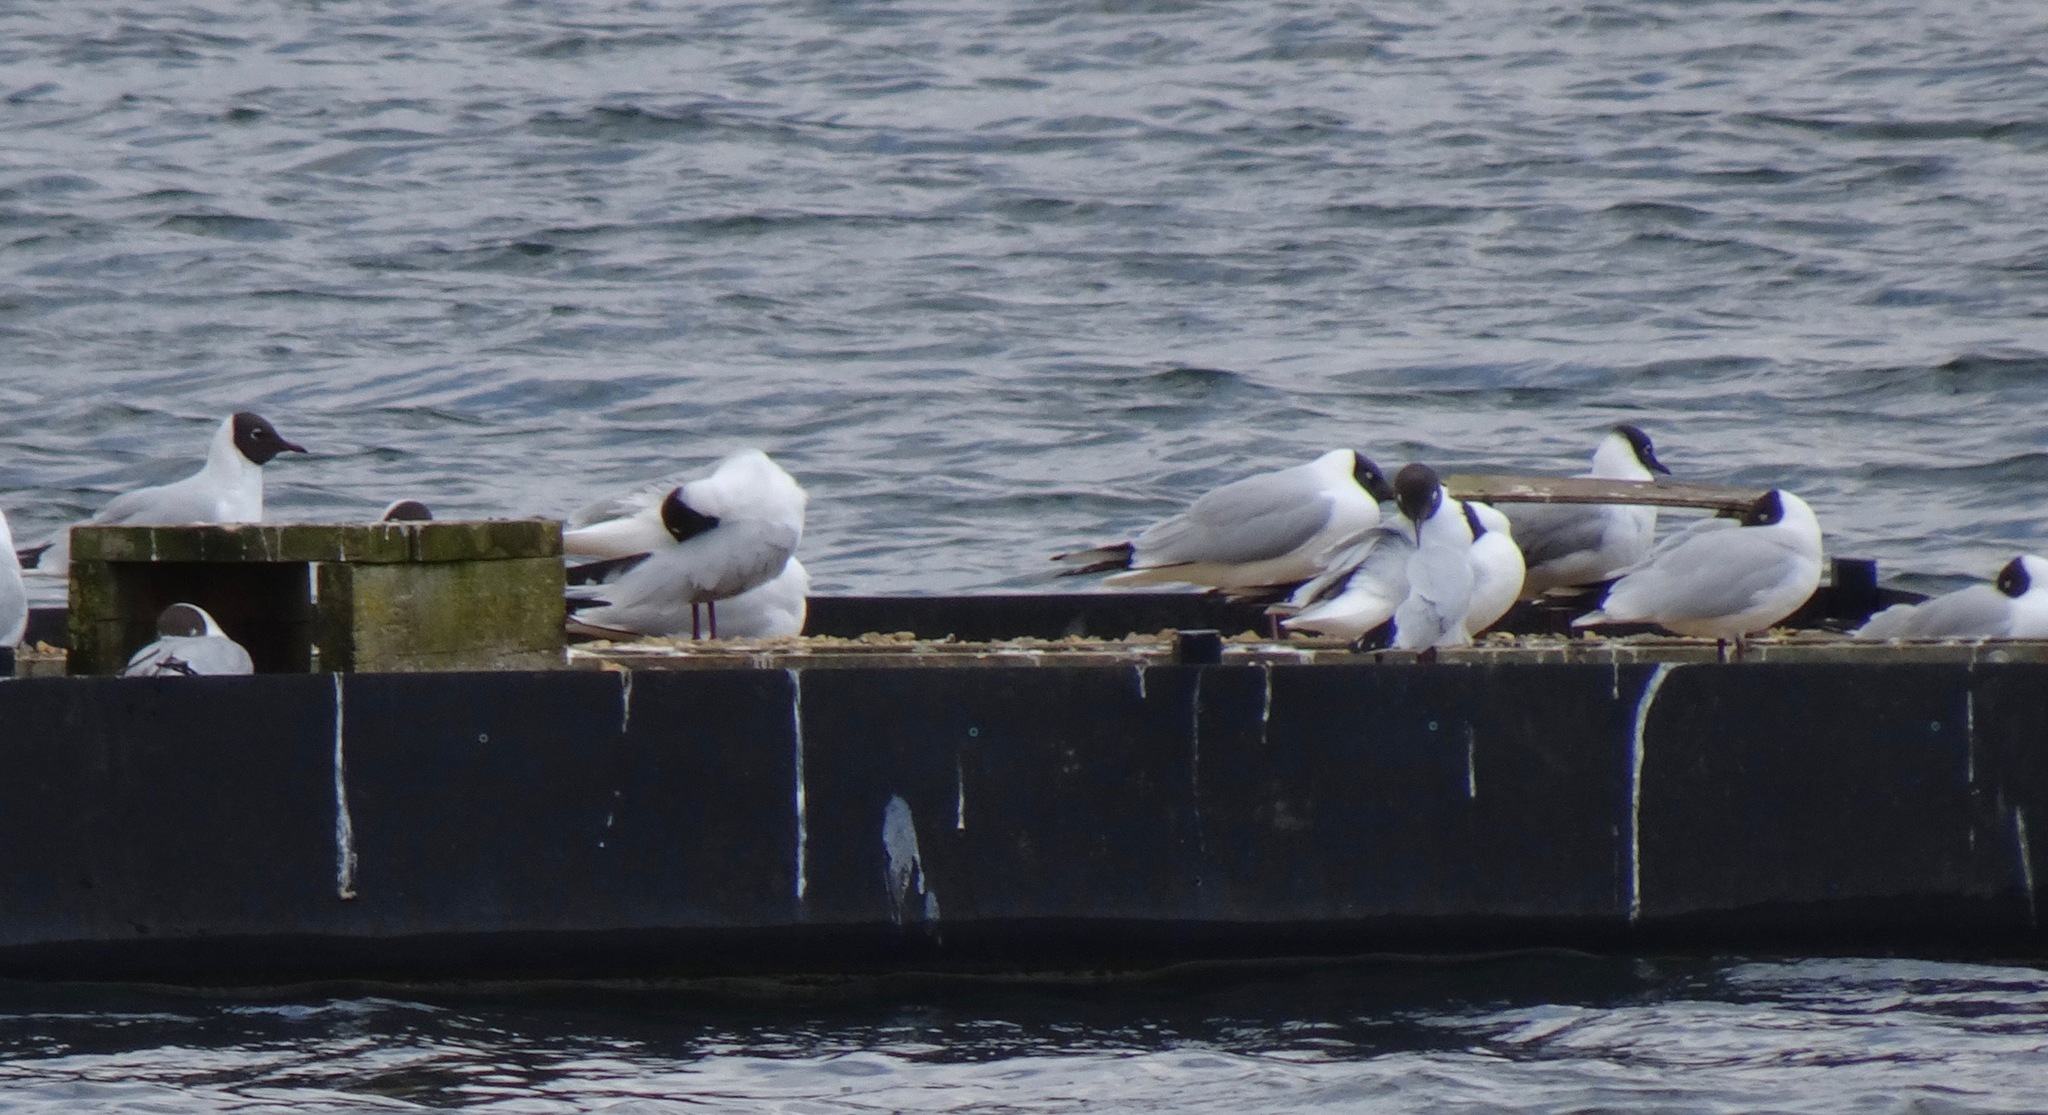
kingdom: Animalia
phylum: Chordata
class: Aves
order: Charadriiformes
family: Laridae
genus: Chroicocephalus
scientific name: Chroicocephalus ridibundus
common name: Black-headed gull
